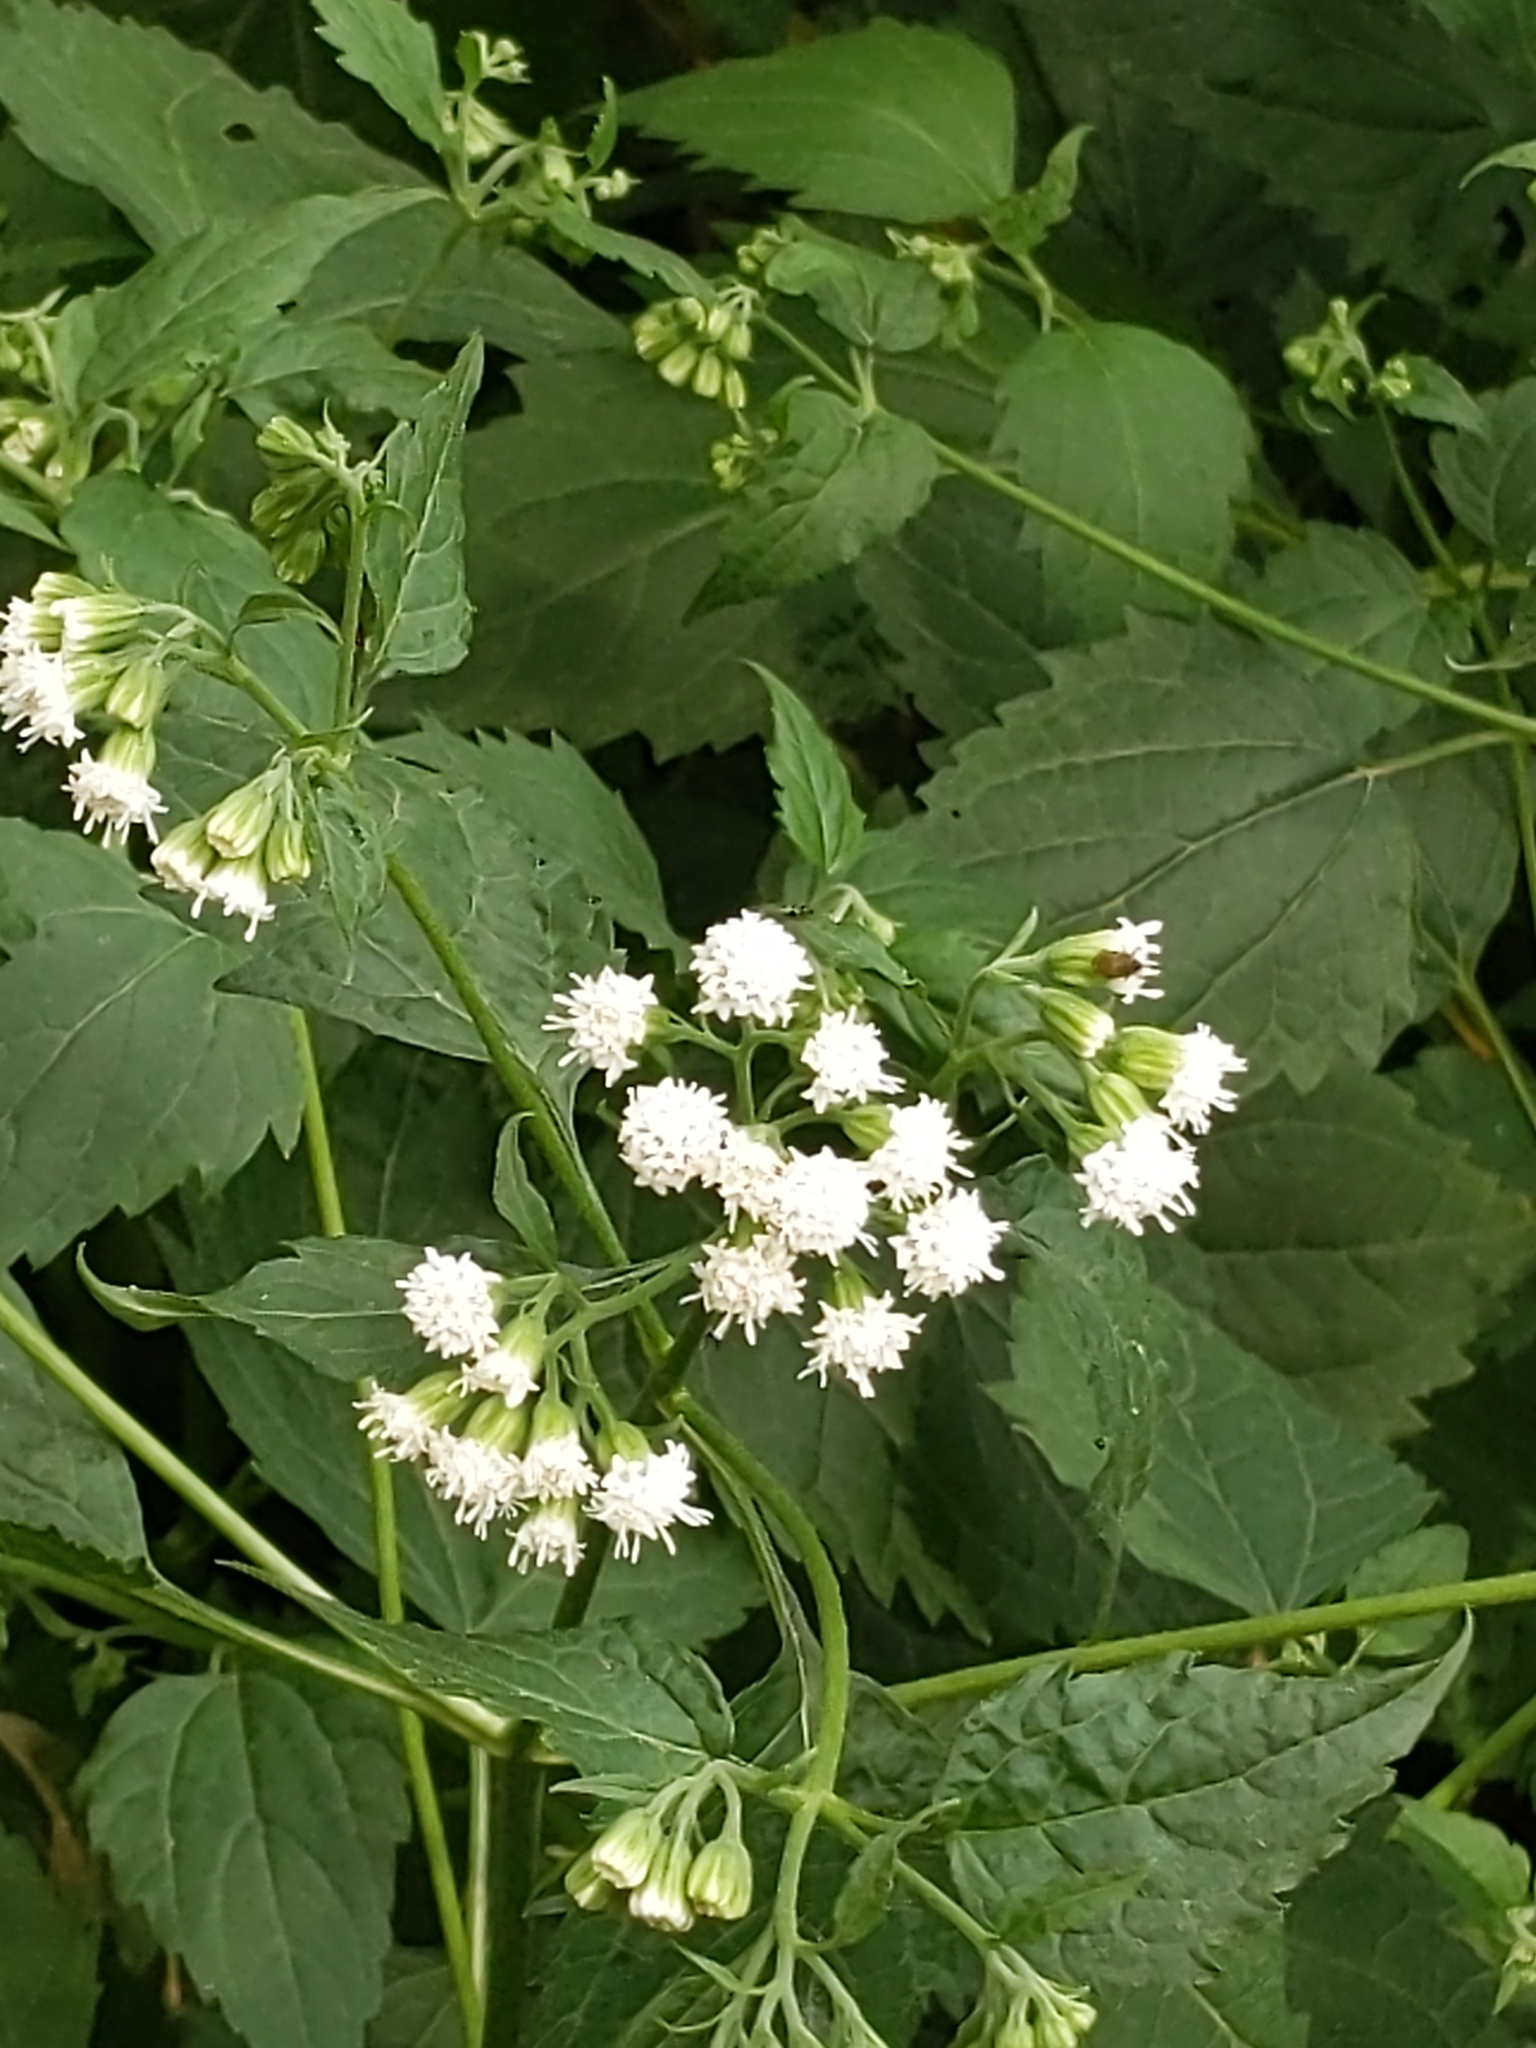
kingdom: Plantae
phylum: Tracheophyta
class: Magnoliopsida
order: Asterales
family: Asteraceae
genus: Ageratina
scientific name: Ageratina altissima
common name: White snakeroot
